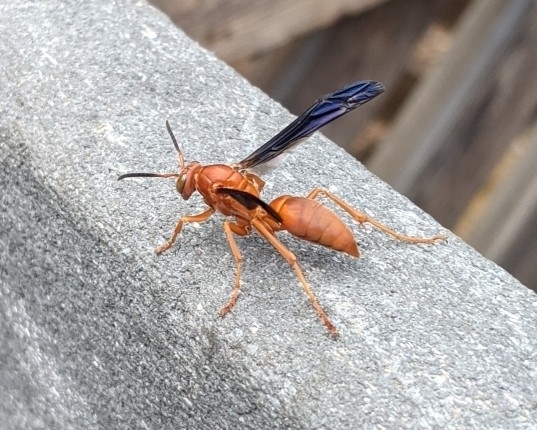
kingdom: Animalia
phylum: Arthropoda
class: Insecta
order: Hymenoptera
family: Vespidae
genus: Fuscopolistes
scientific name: Fuscopolistes
